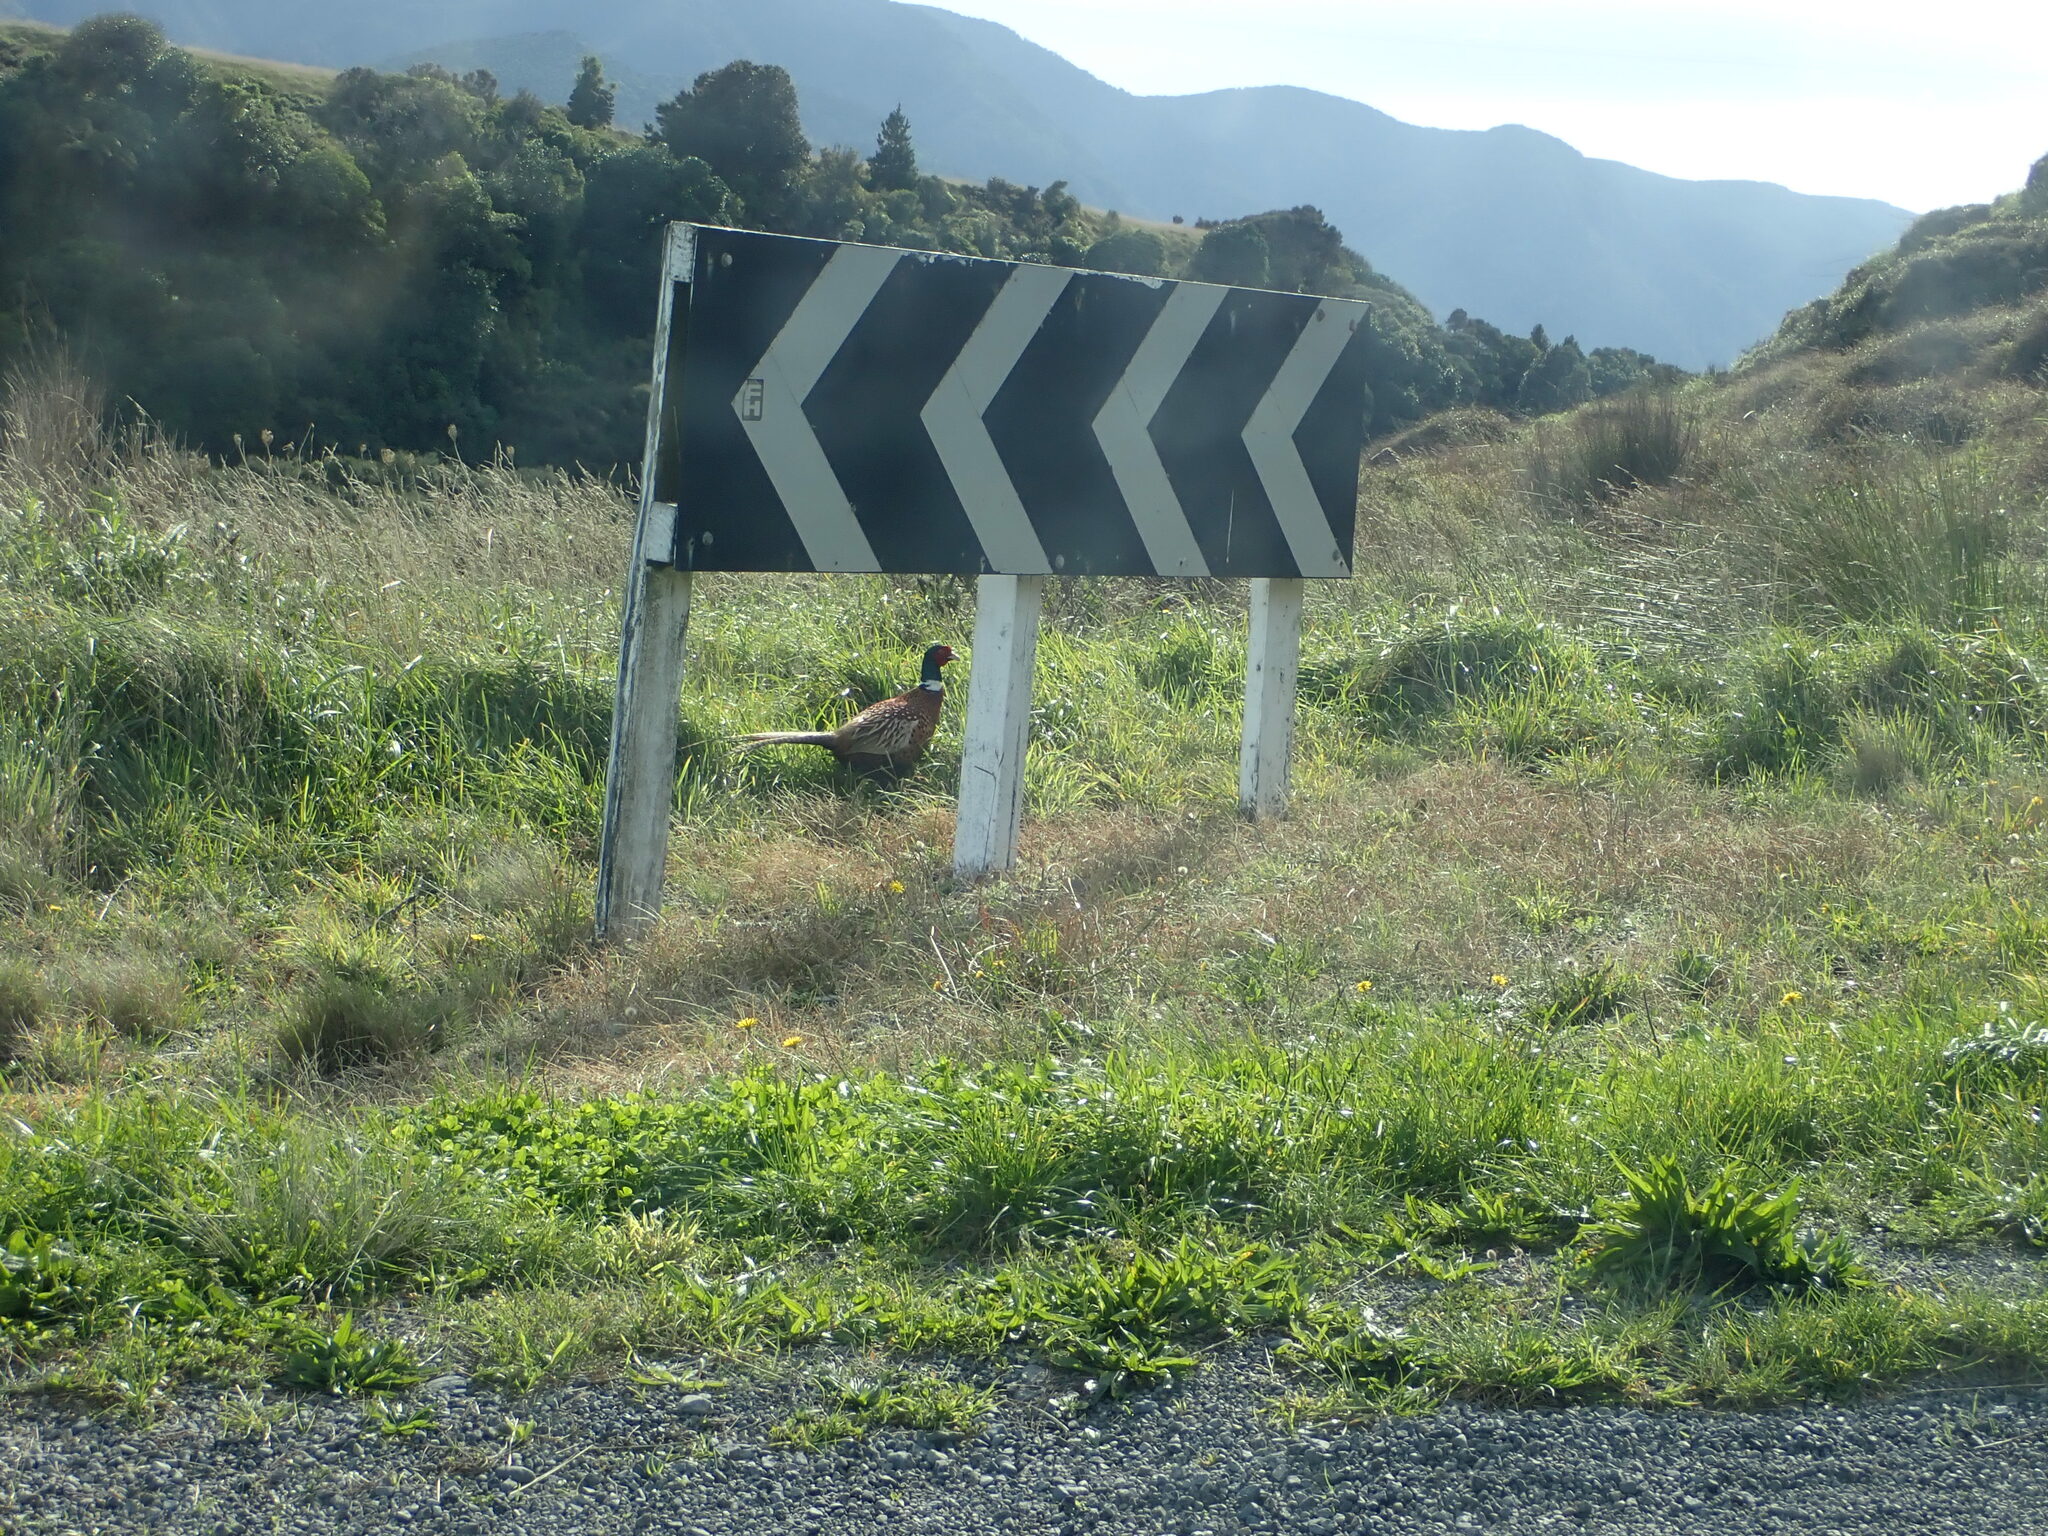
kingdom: Animalia
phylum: Chordata
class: Aves
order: Galliformes
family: Phasianidae
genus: Phasianus
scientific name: Phasianus colchicus
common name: Common pheasant
